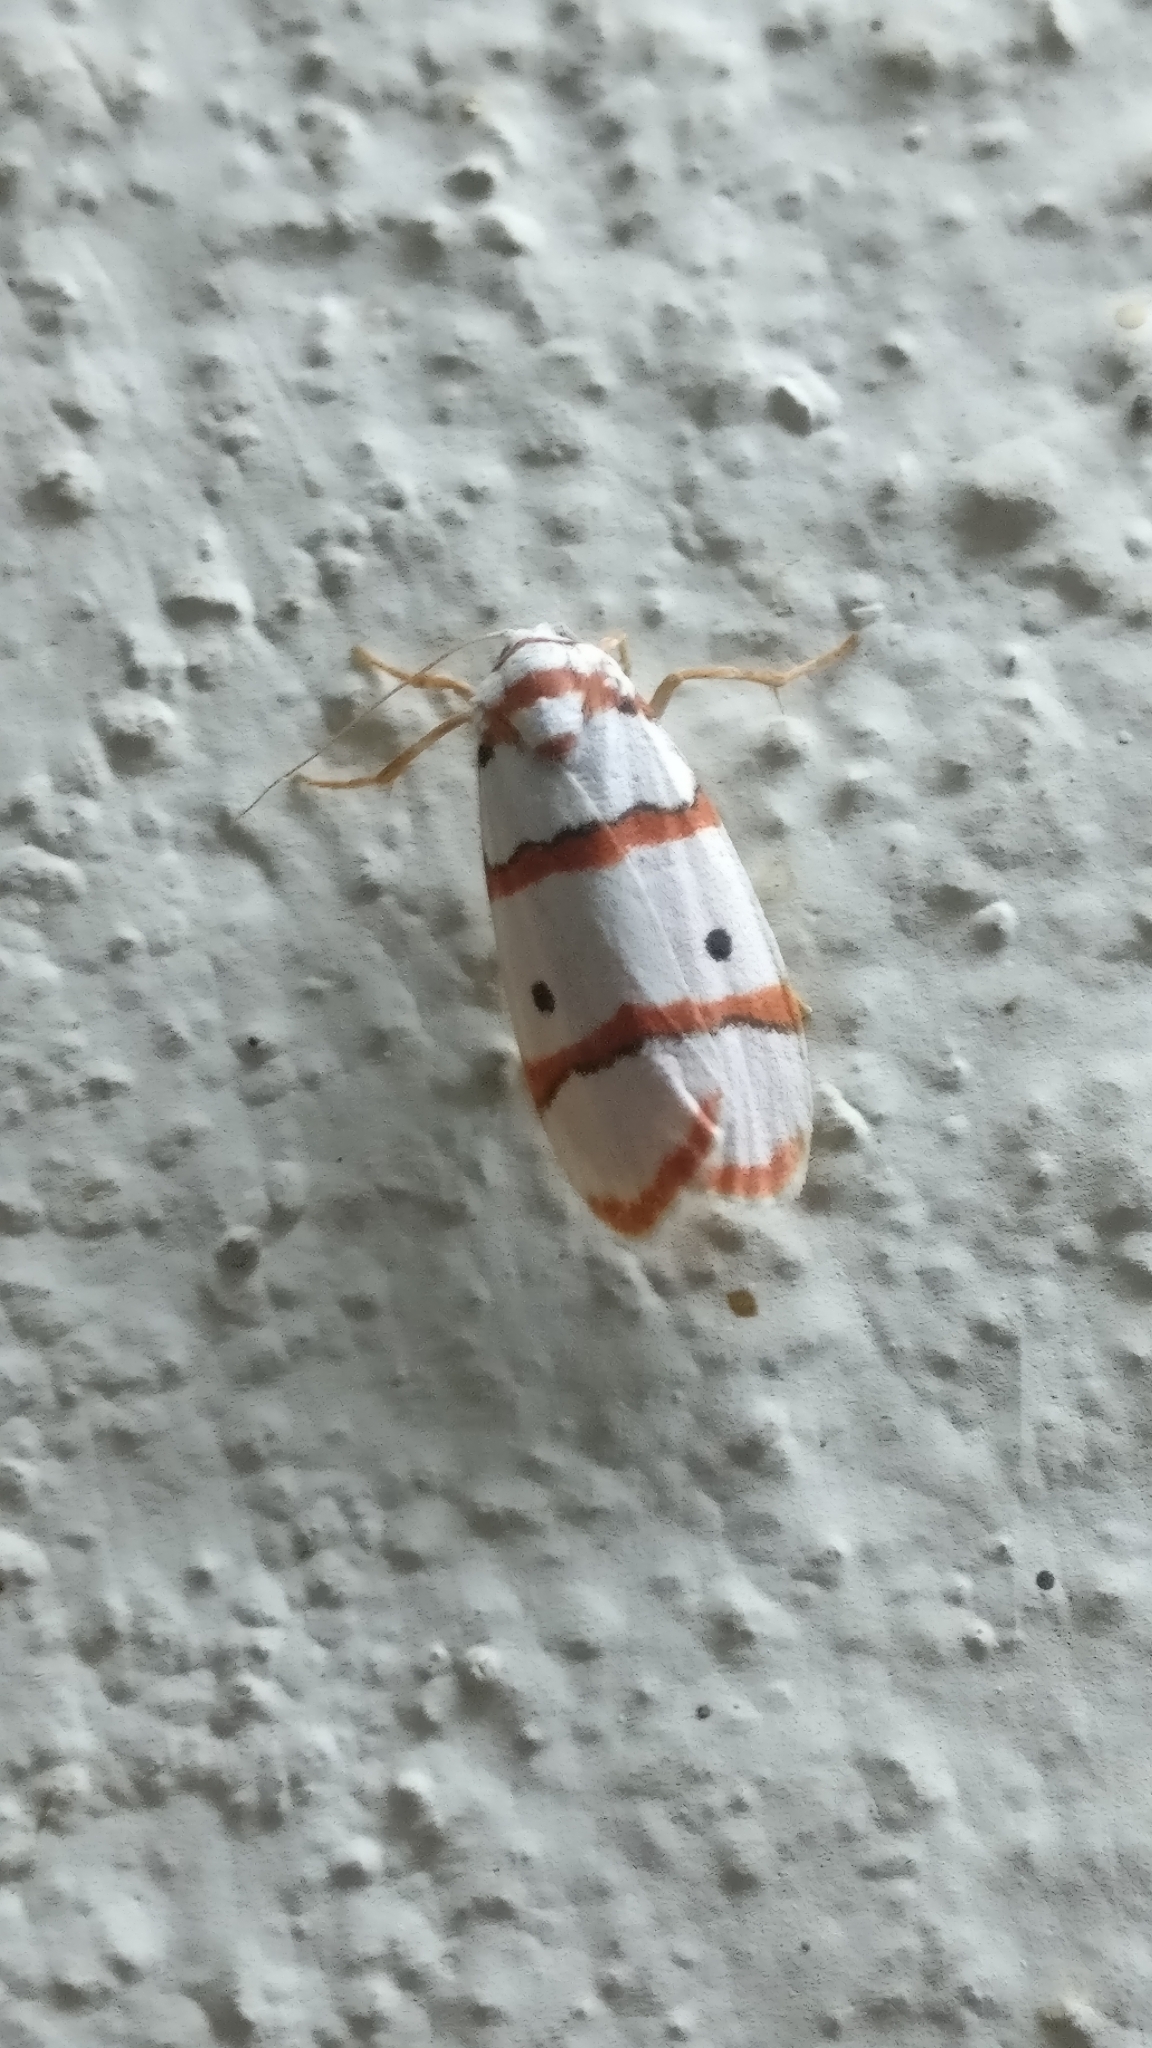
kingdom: Animalia
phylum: Arthropoda
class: Insecta
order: Lepidoptera
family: Erebidae
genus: Cyana
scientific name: Cyana peregrina
